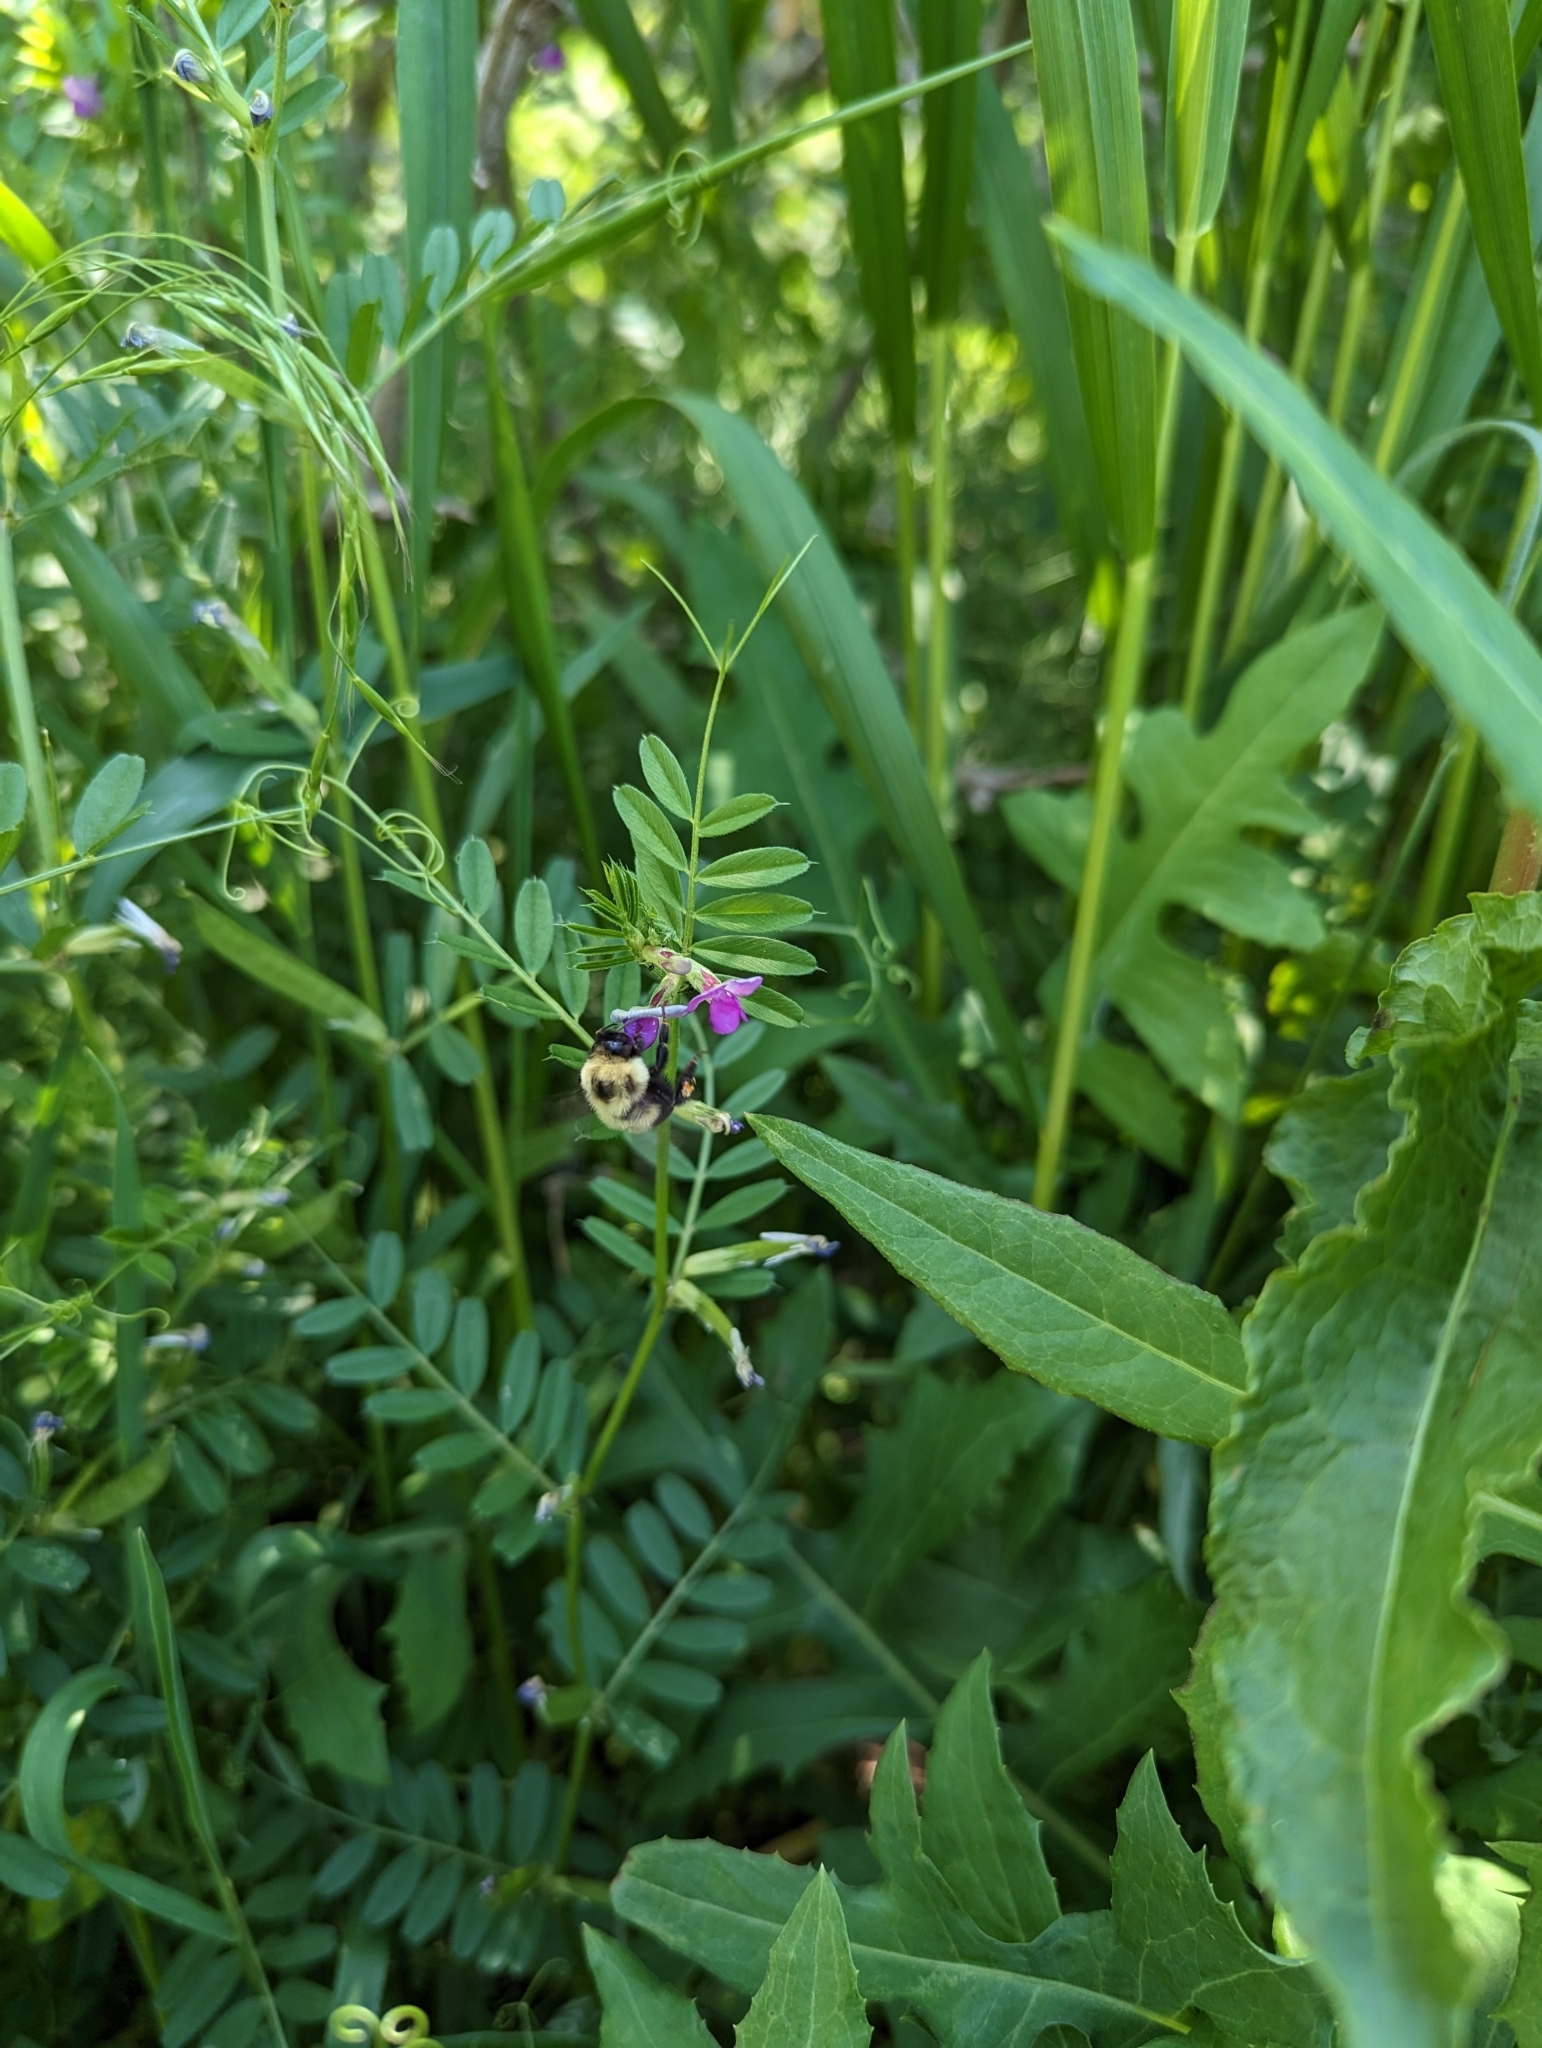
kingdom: Plantae
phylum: Tracheophyta
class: Magnoliopsida
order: Fabales
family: Fabaceae
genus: Vicia
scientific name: Vicia sativa
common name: Garden vetch
